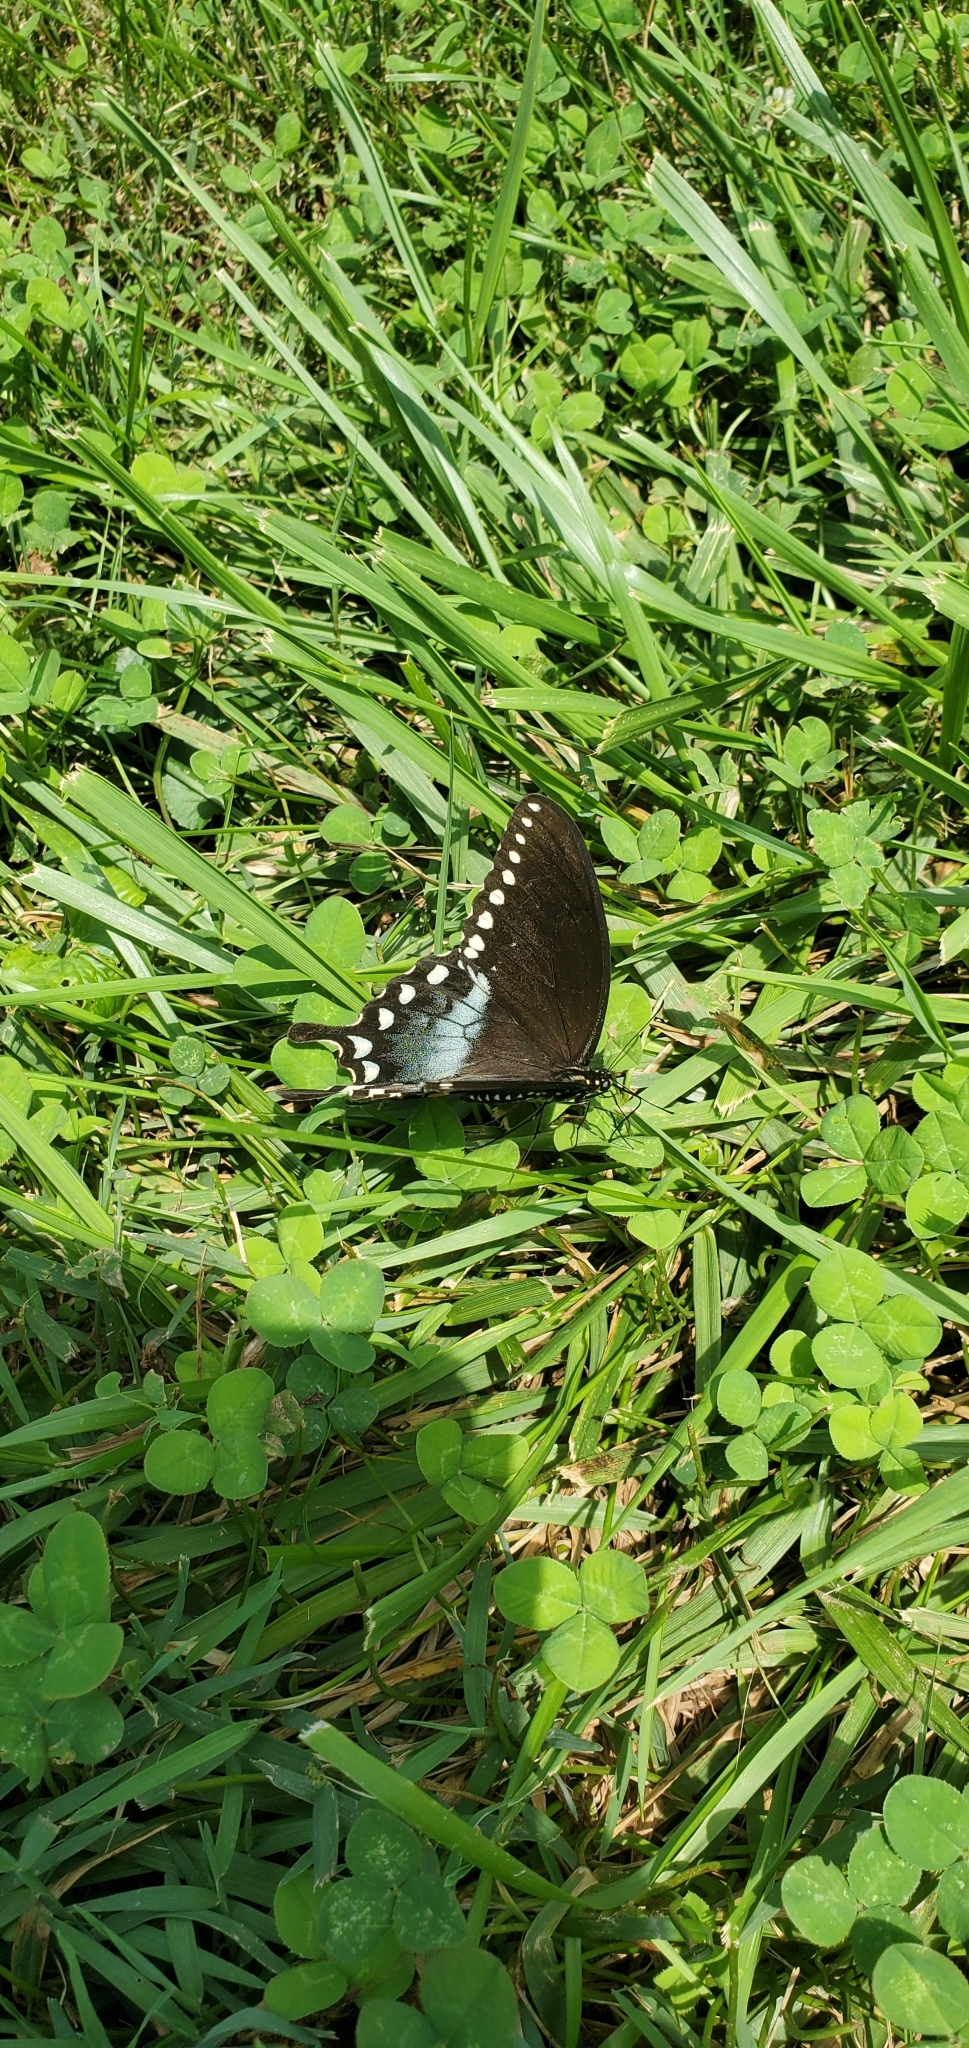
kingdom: Animalia
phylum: Arthropoda
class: Insecta
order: Lepidoptera
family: Papilionidae
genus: Papilio
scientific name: Papilio troilus
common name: Spicebush swallowtail
